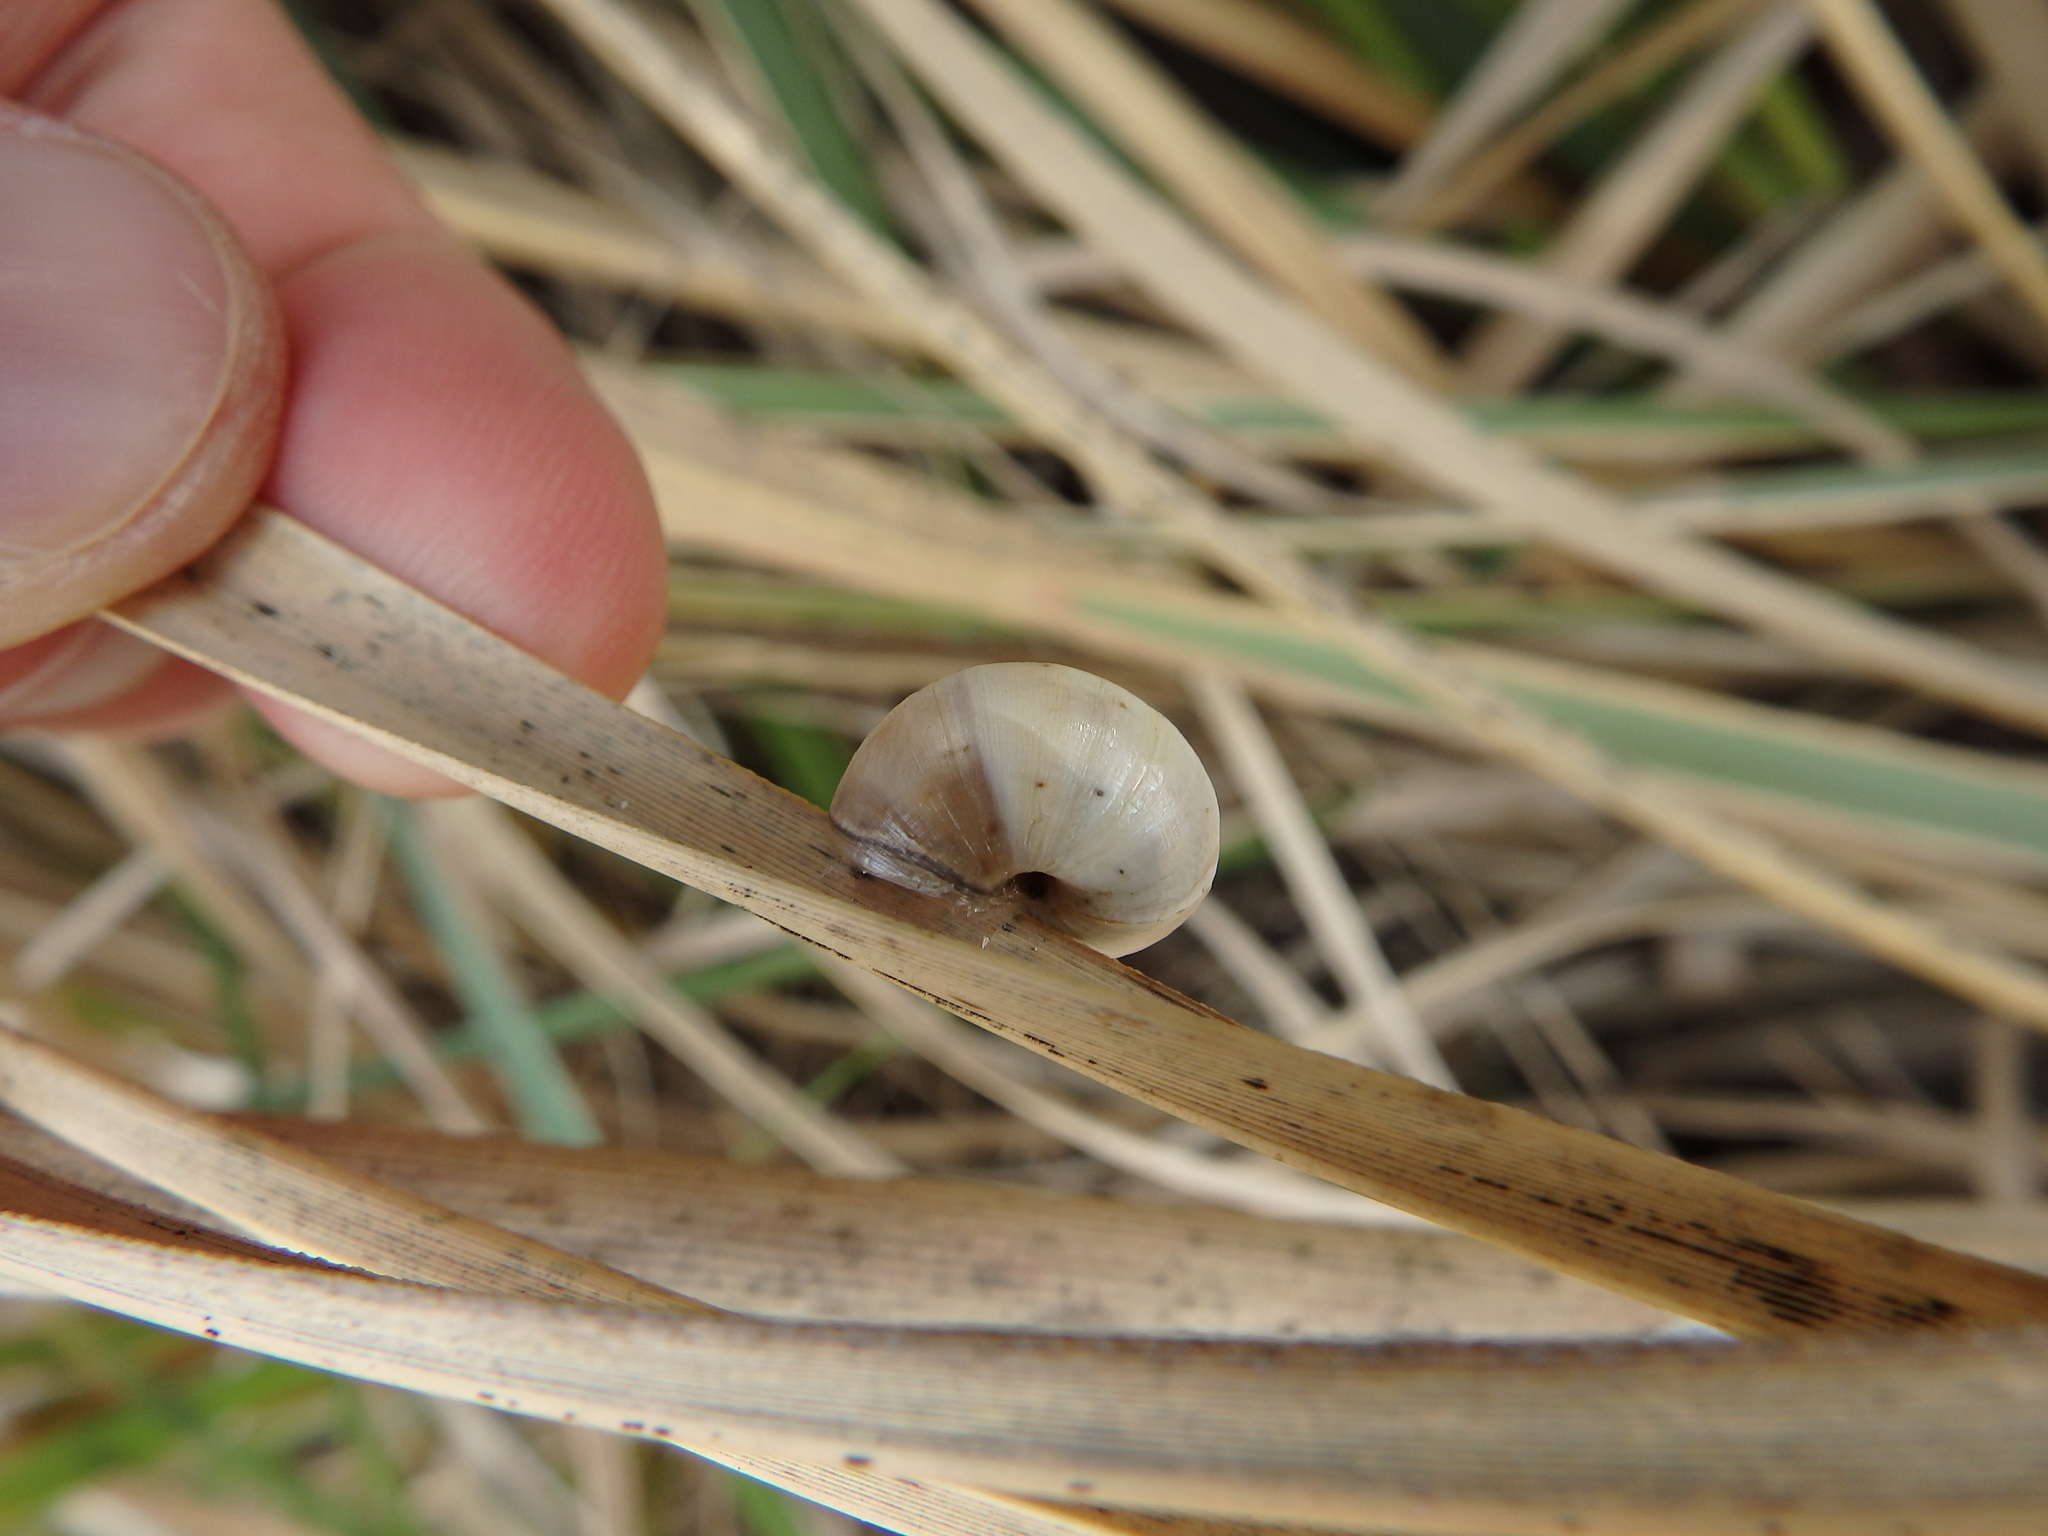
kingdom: Animalia
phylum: Mollusca
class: Gastropoda
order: Stylommatophora
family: Helicidae
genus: Theba
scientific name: Theba pisana
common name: White snail
